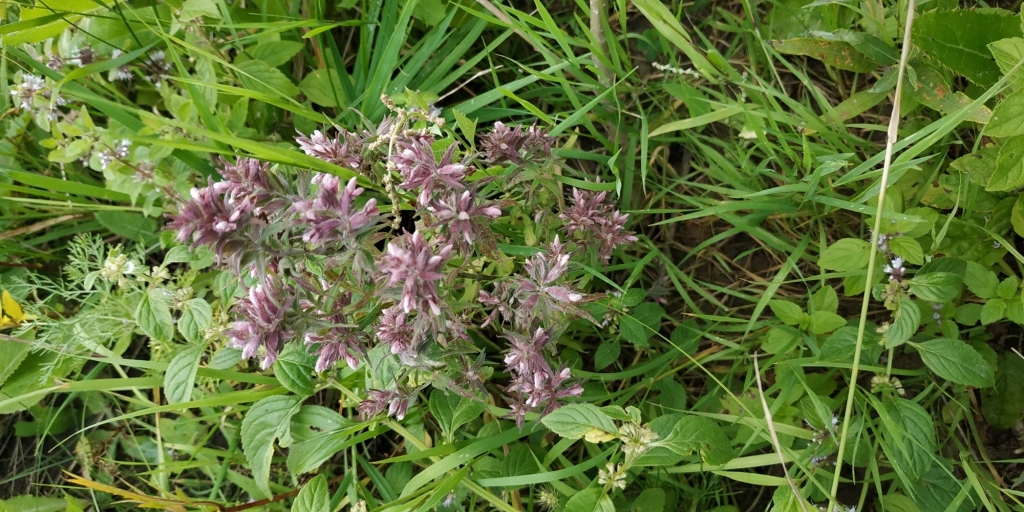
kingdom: Plantae
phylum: Tracheophyta
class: Magnoliopsida
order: Lamiales
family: Orobanchaceae
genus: Odontites
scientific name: Odontites vulgaris
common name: Broomrape
